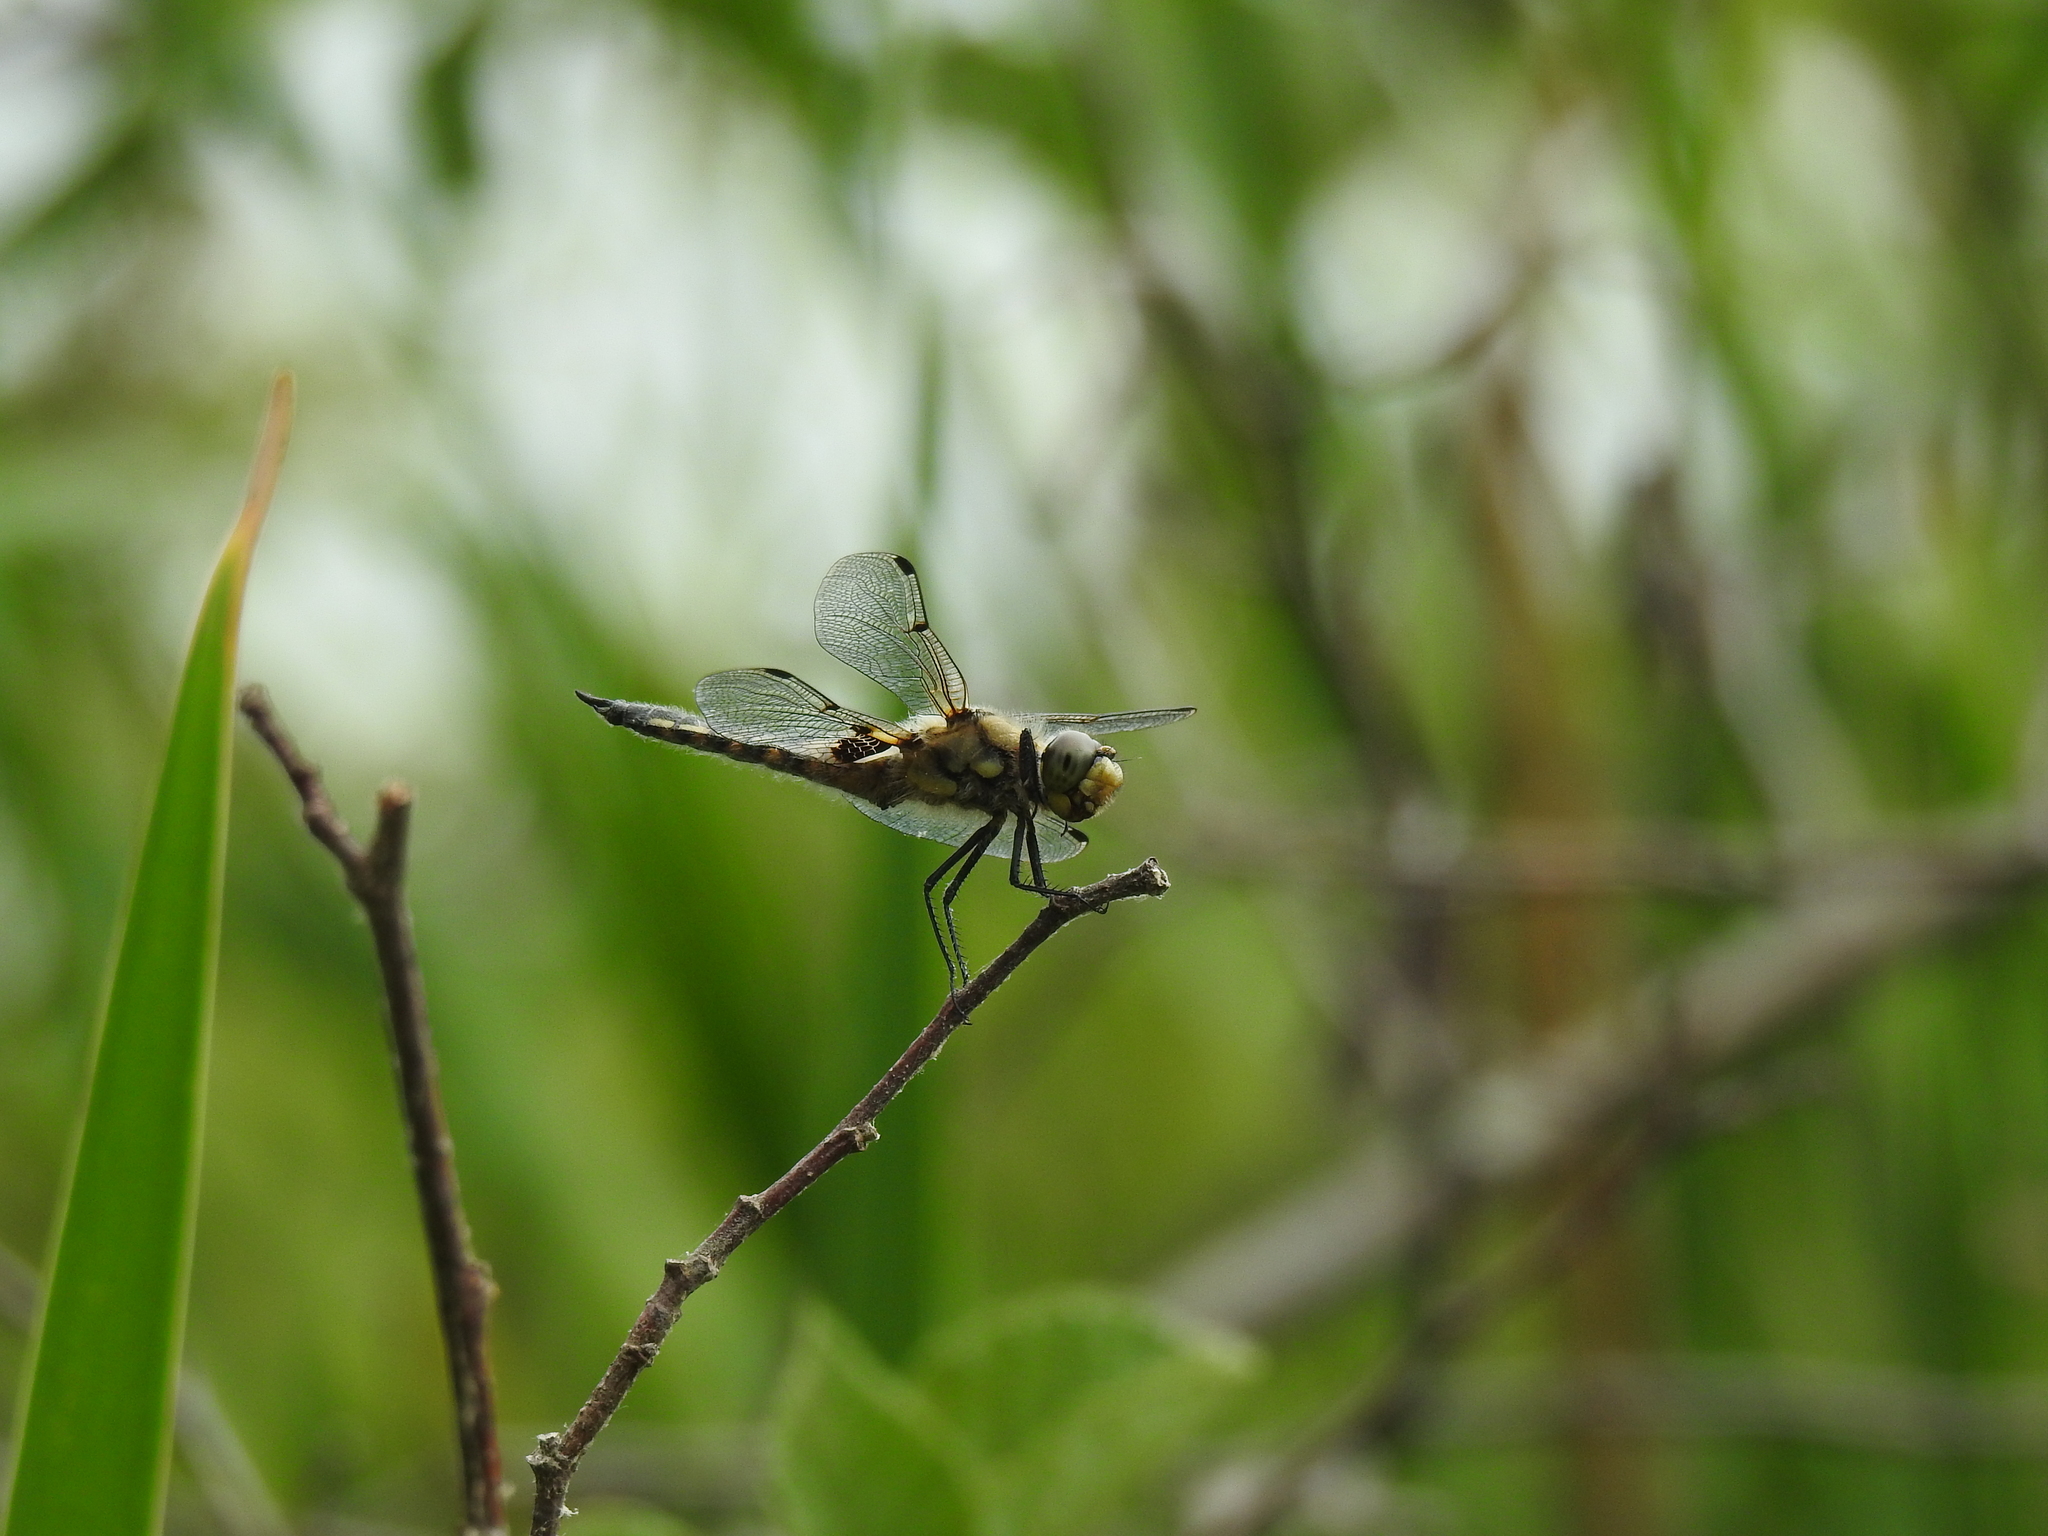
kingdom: Animalia
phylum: Arthropoda
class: Insecta
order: Odonata
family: Libellulidae
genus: Libellula
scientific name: Libellula quadrimaculata
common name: Four-spotted chaser
